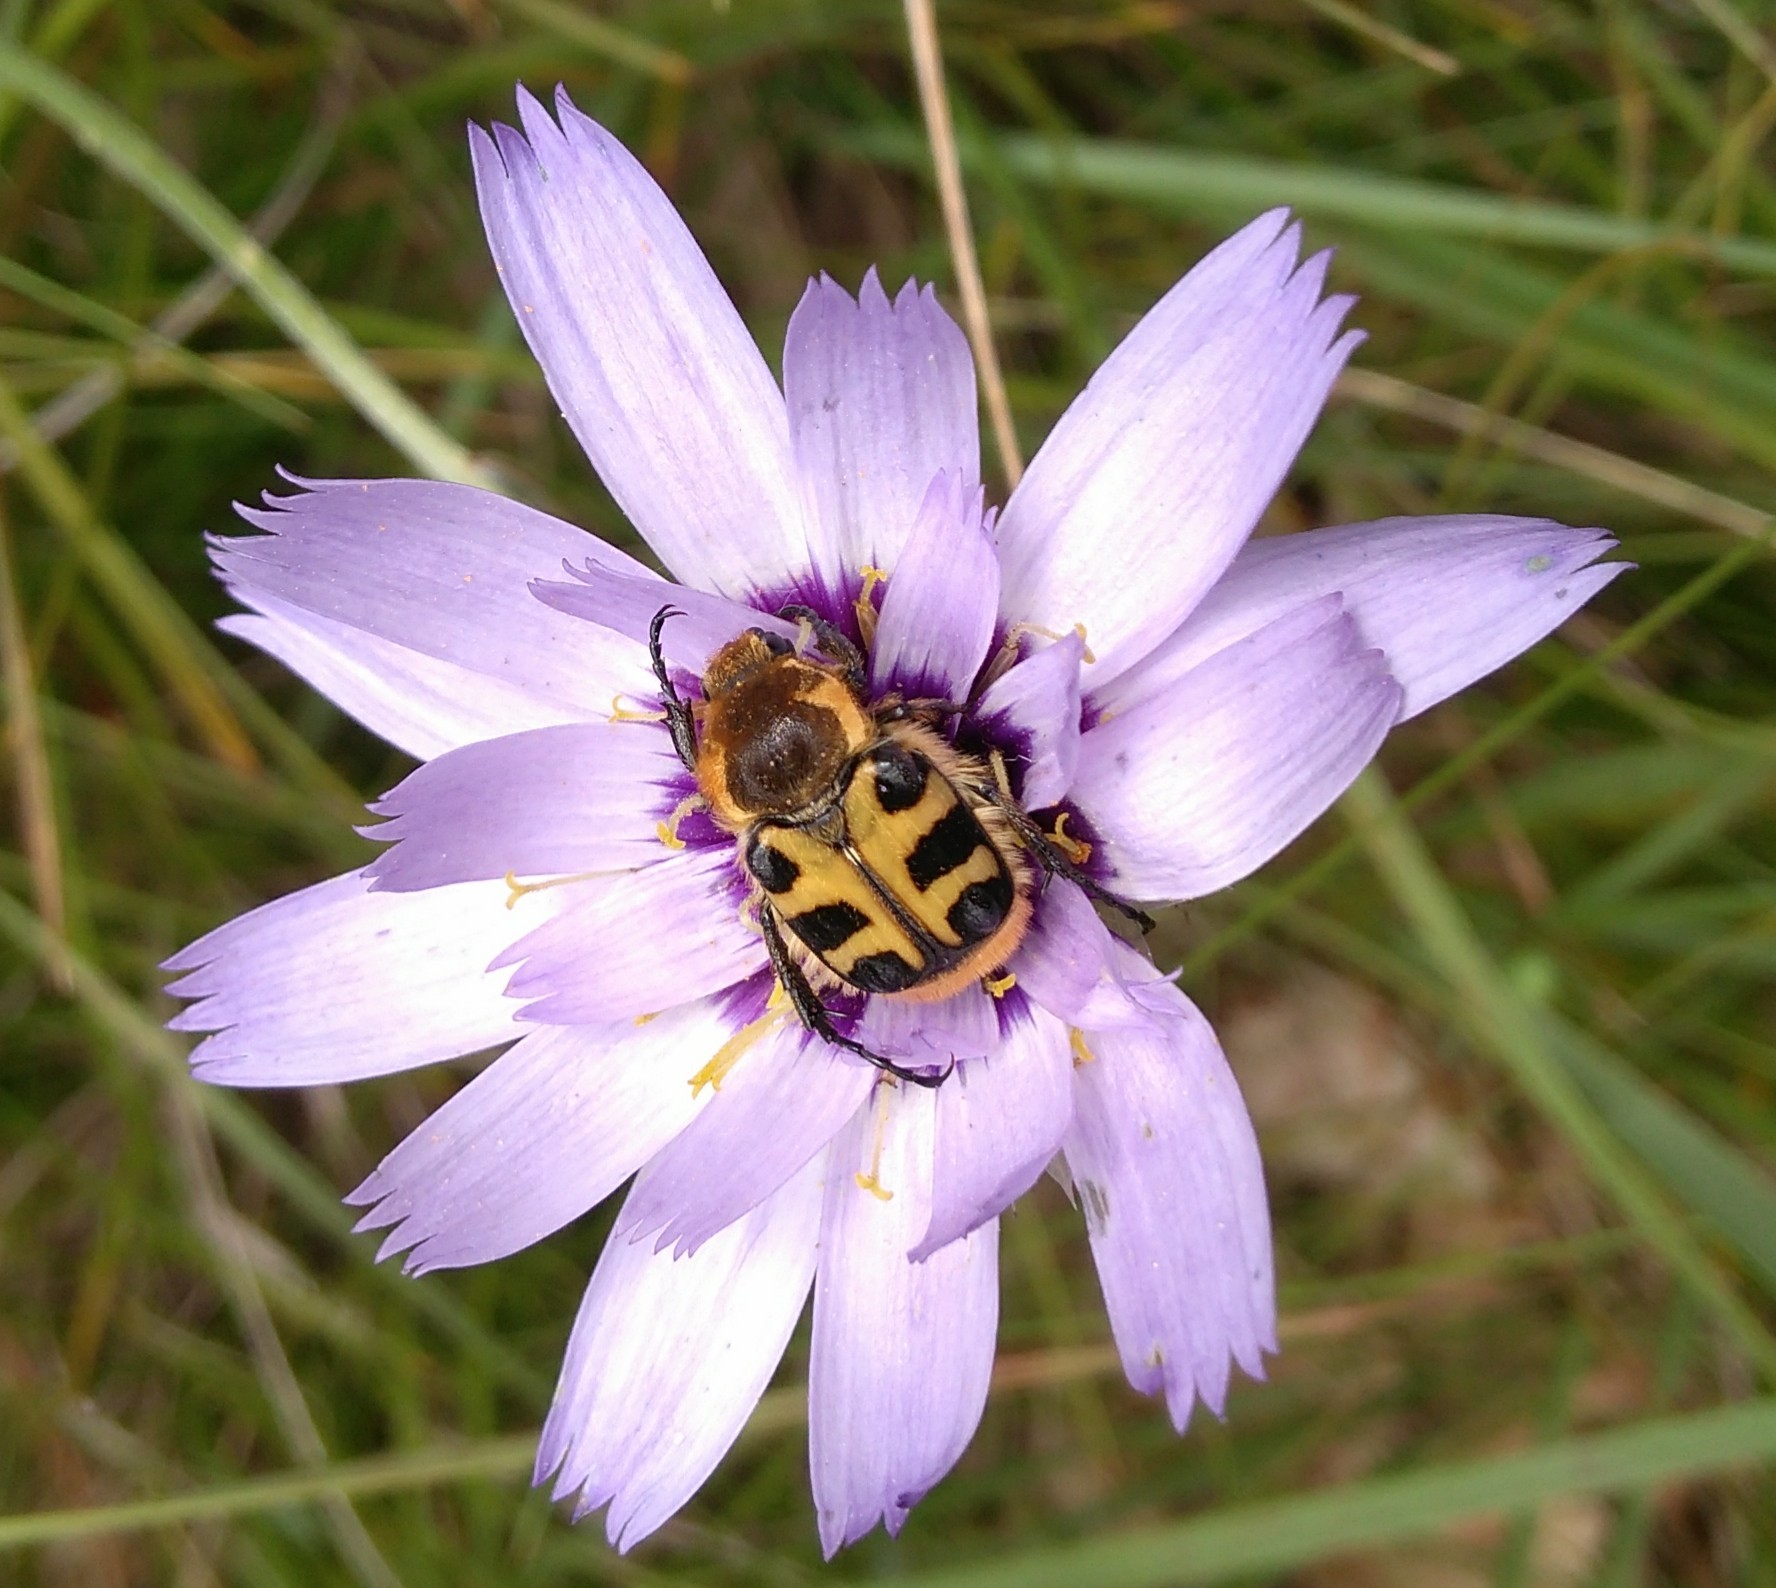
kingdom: Animalia
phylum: Arthropoda
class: Insecta
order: Coleoptera
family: Scarabaeidae
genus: Trichius
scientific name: Trichius gallicus
